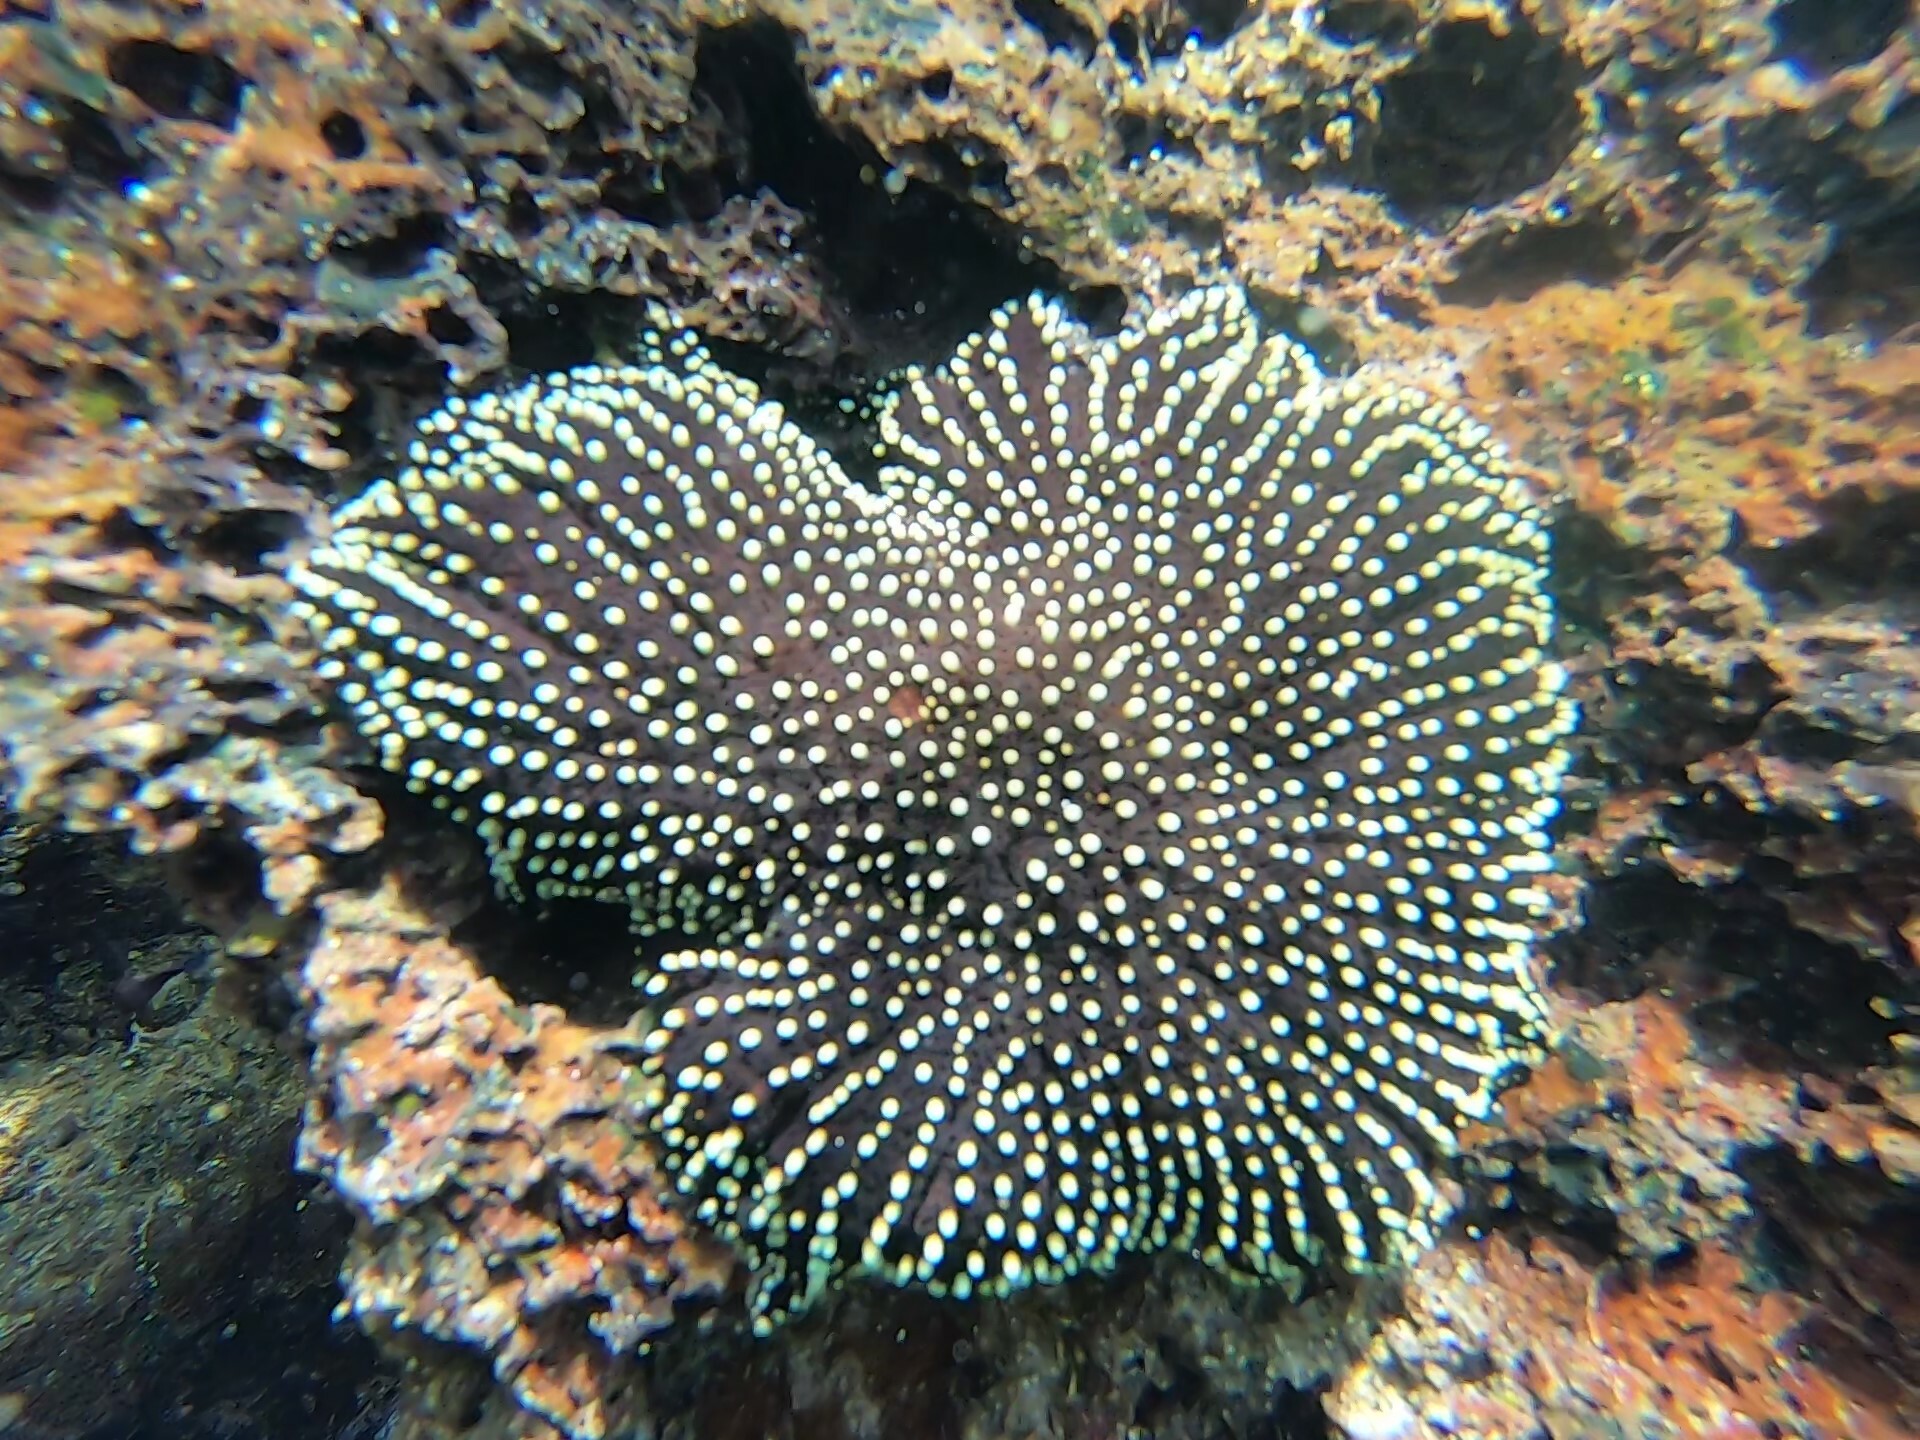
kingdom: Animalia
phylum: Echinodermata
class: Asteroidea
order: Forcipulatida
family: Heliasteridae
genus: Heliaster
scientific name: Heliaster cumingi
